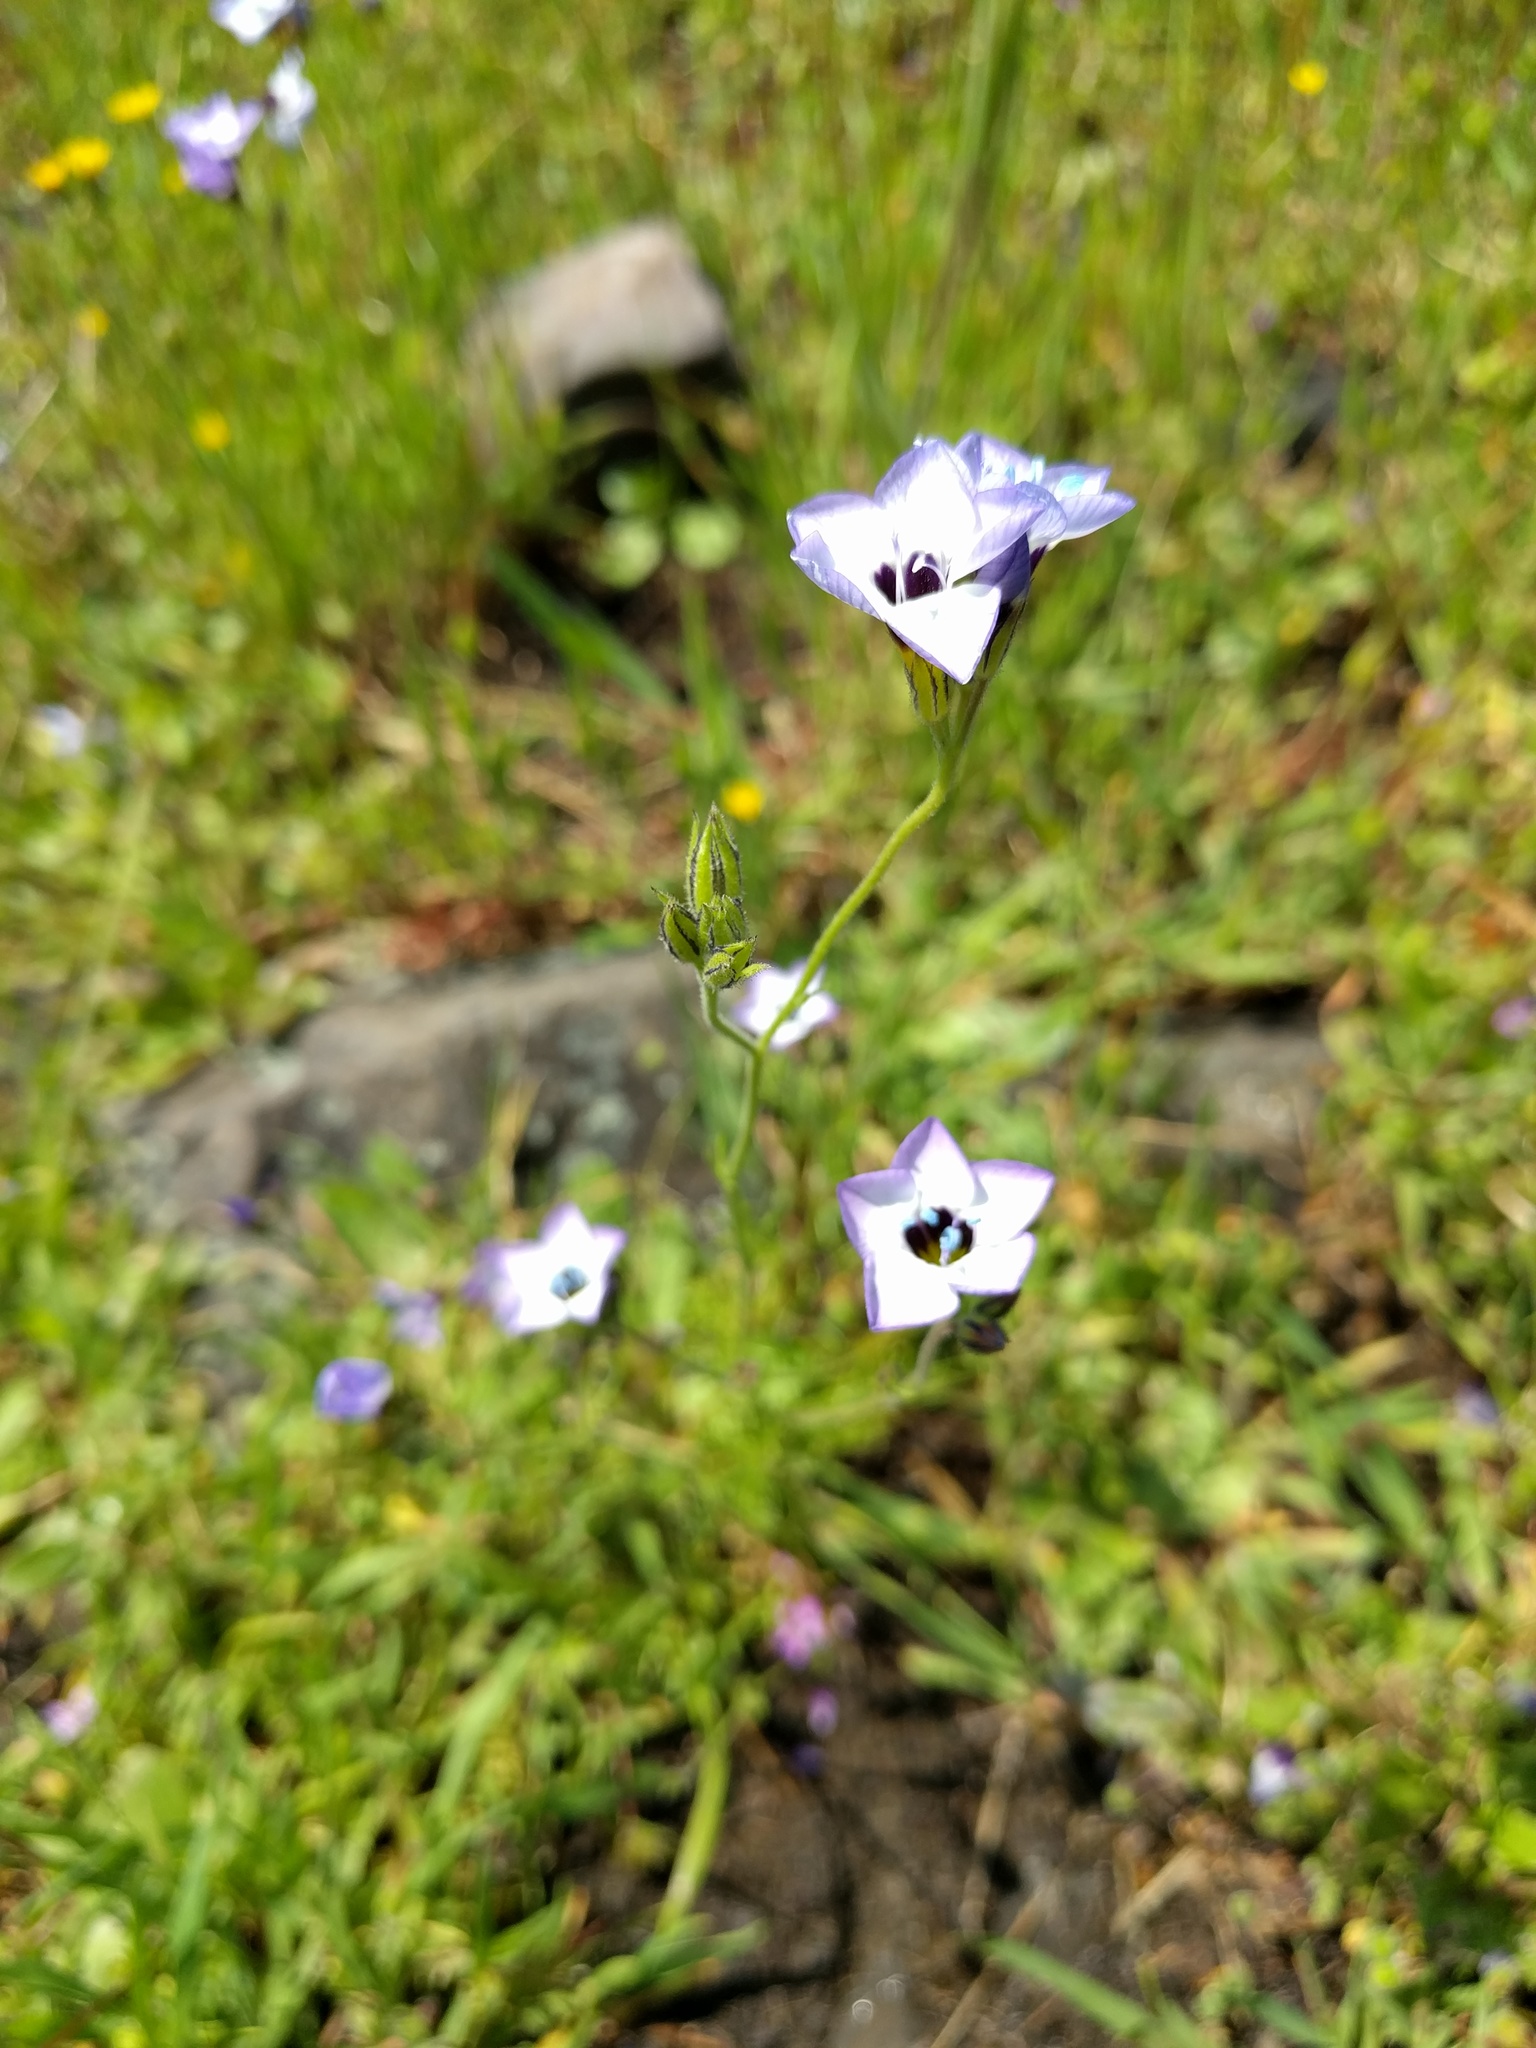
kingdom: Plantae
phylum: Tracheophyta
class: Magnoliopsida
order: Ericales
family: Polemoniaceae
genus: Gilia
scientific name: Gilia tricolor
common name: Bird's-eyes
